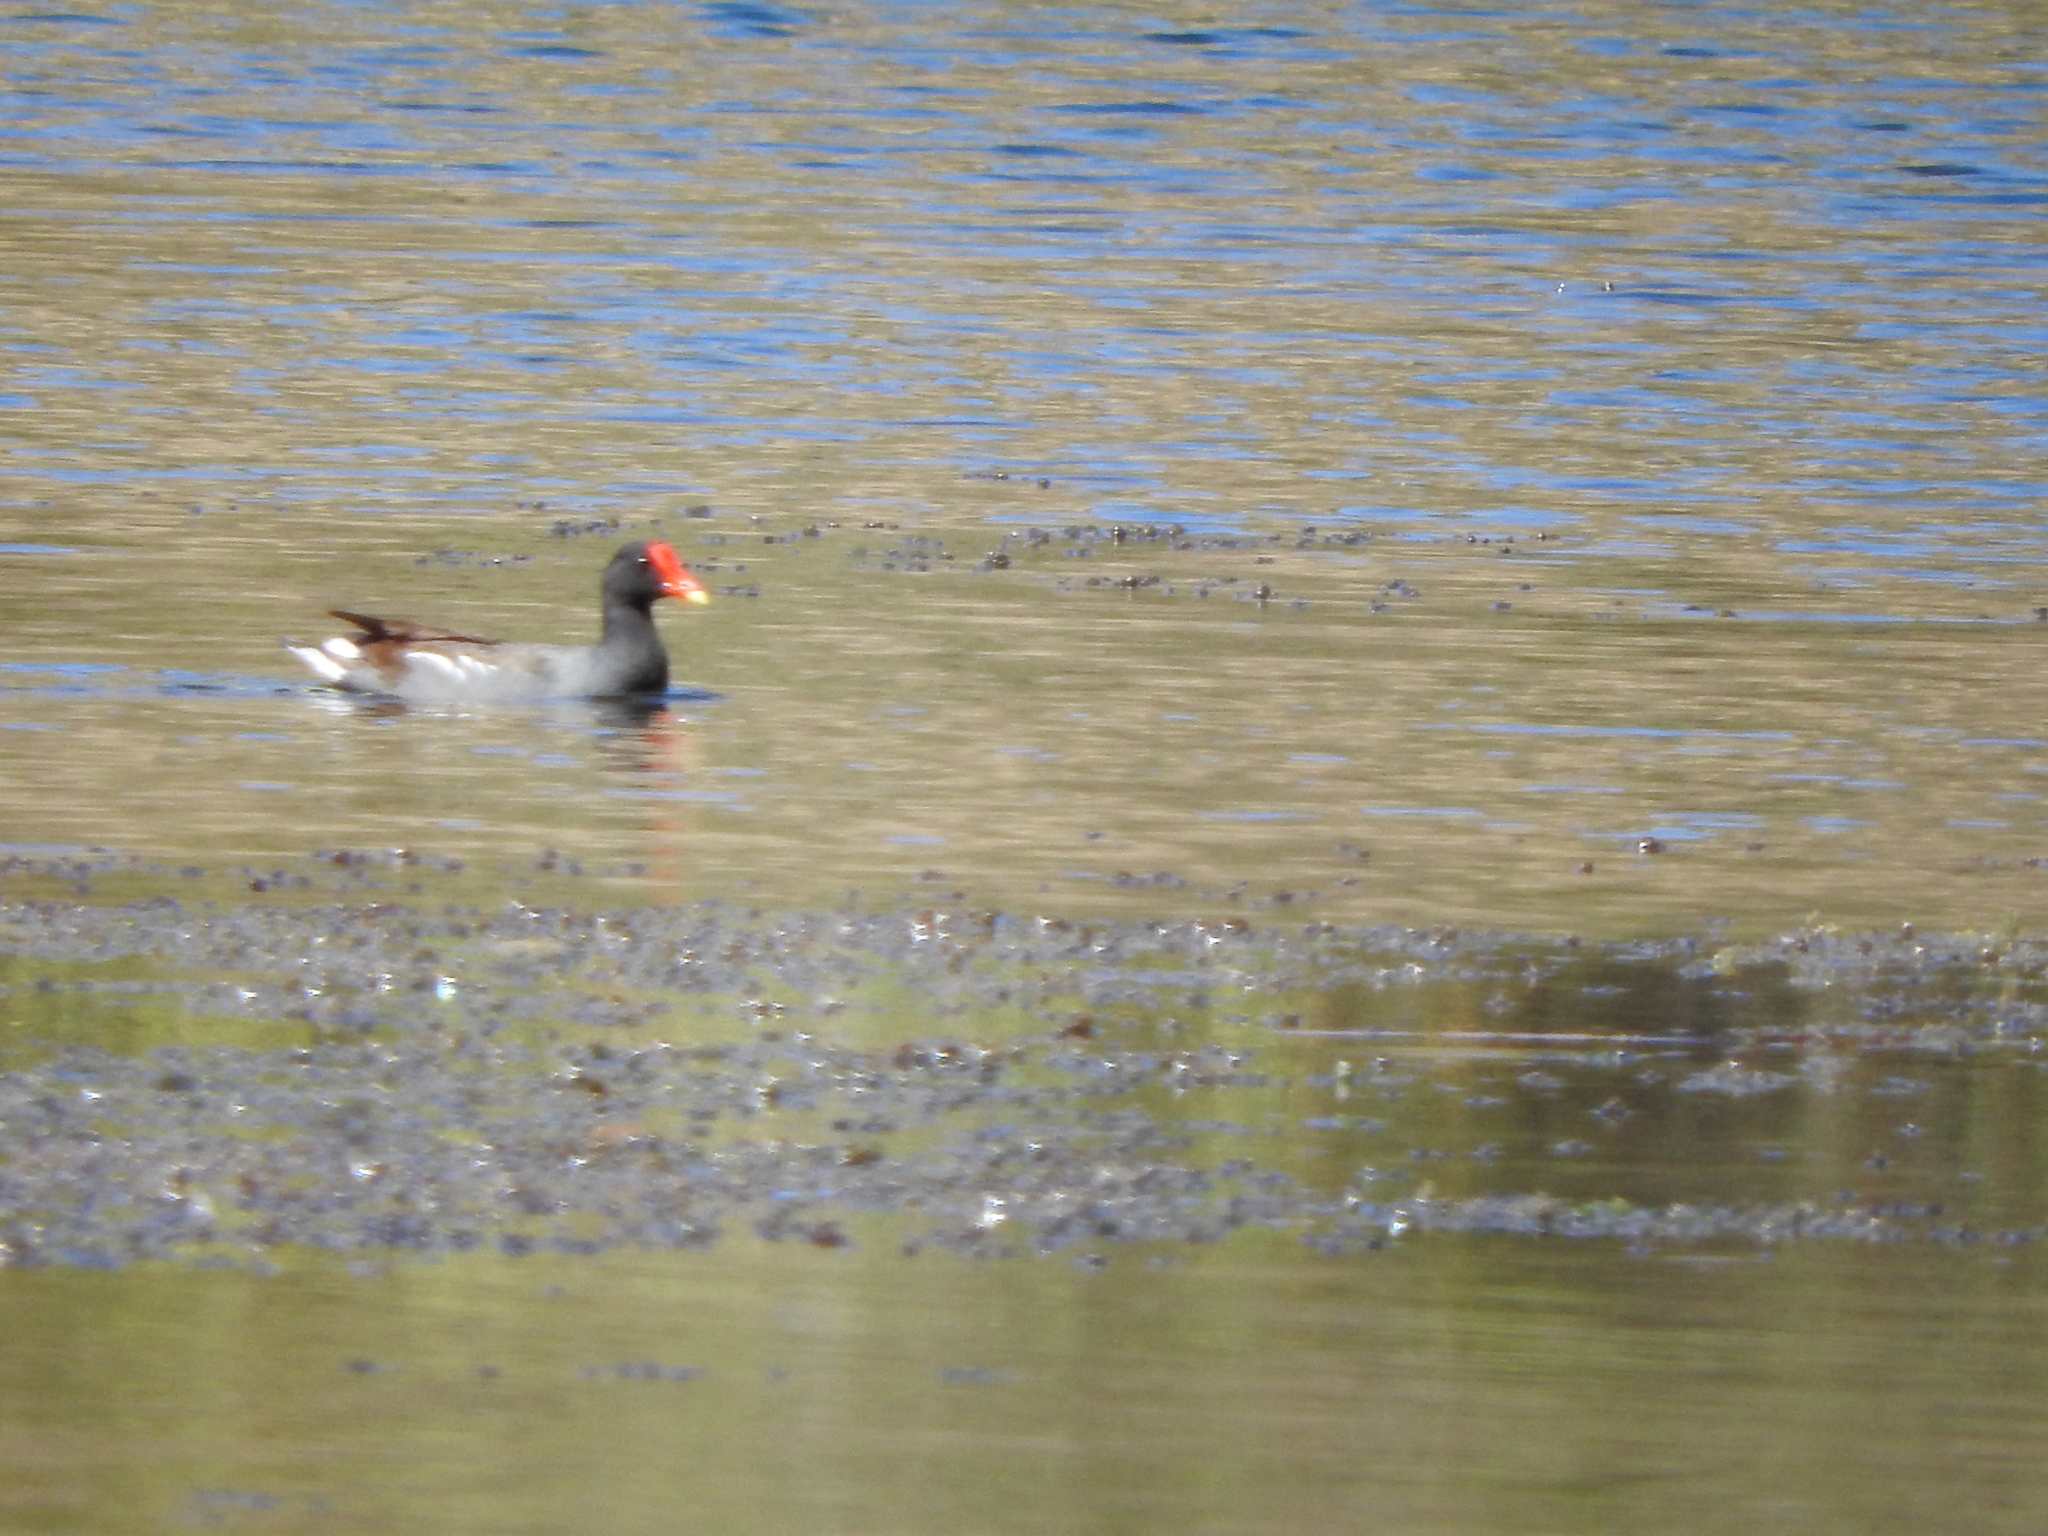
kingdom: Animalia
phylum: Chordata
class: Aves
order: Gruiformes
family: Rallidae
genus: Gallinula
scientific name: Gallinula chloropus
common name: Common moorhen
